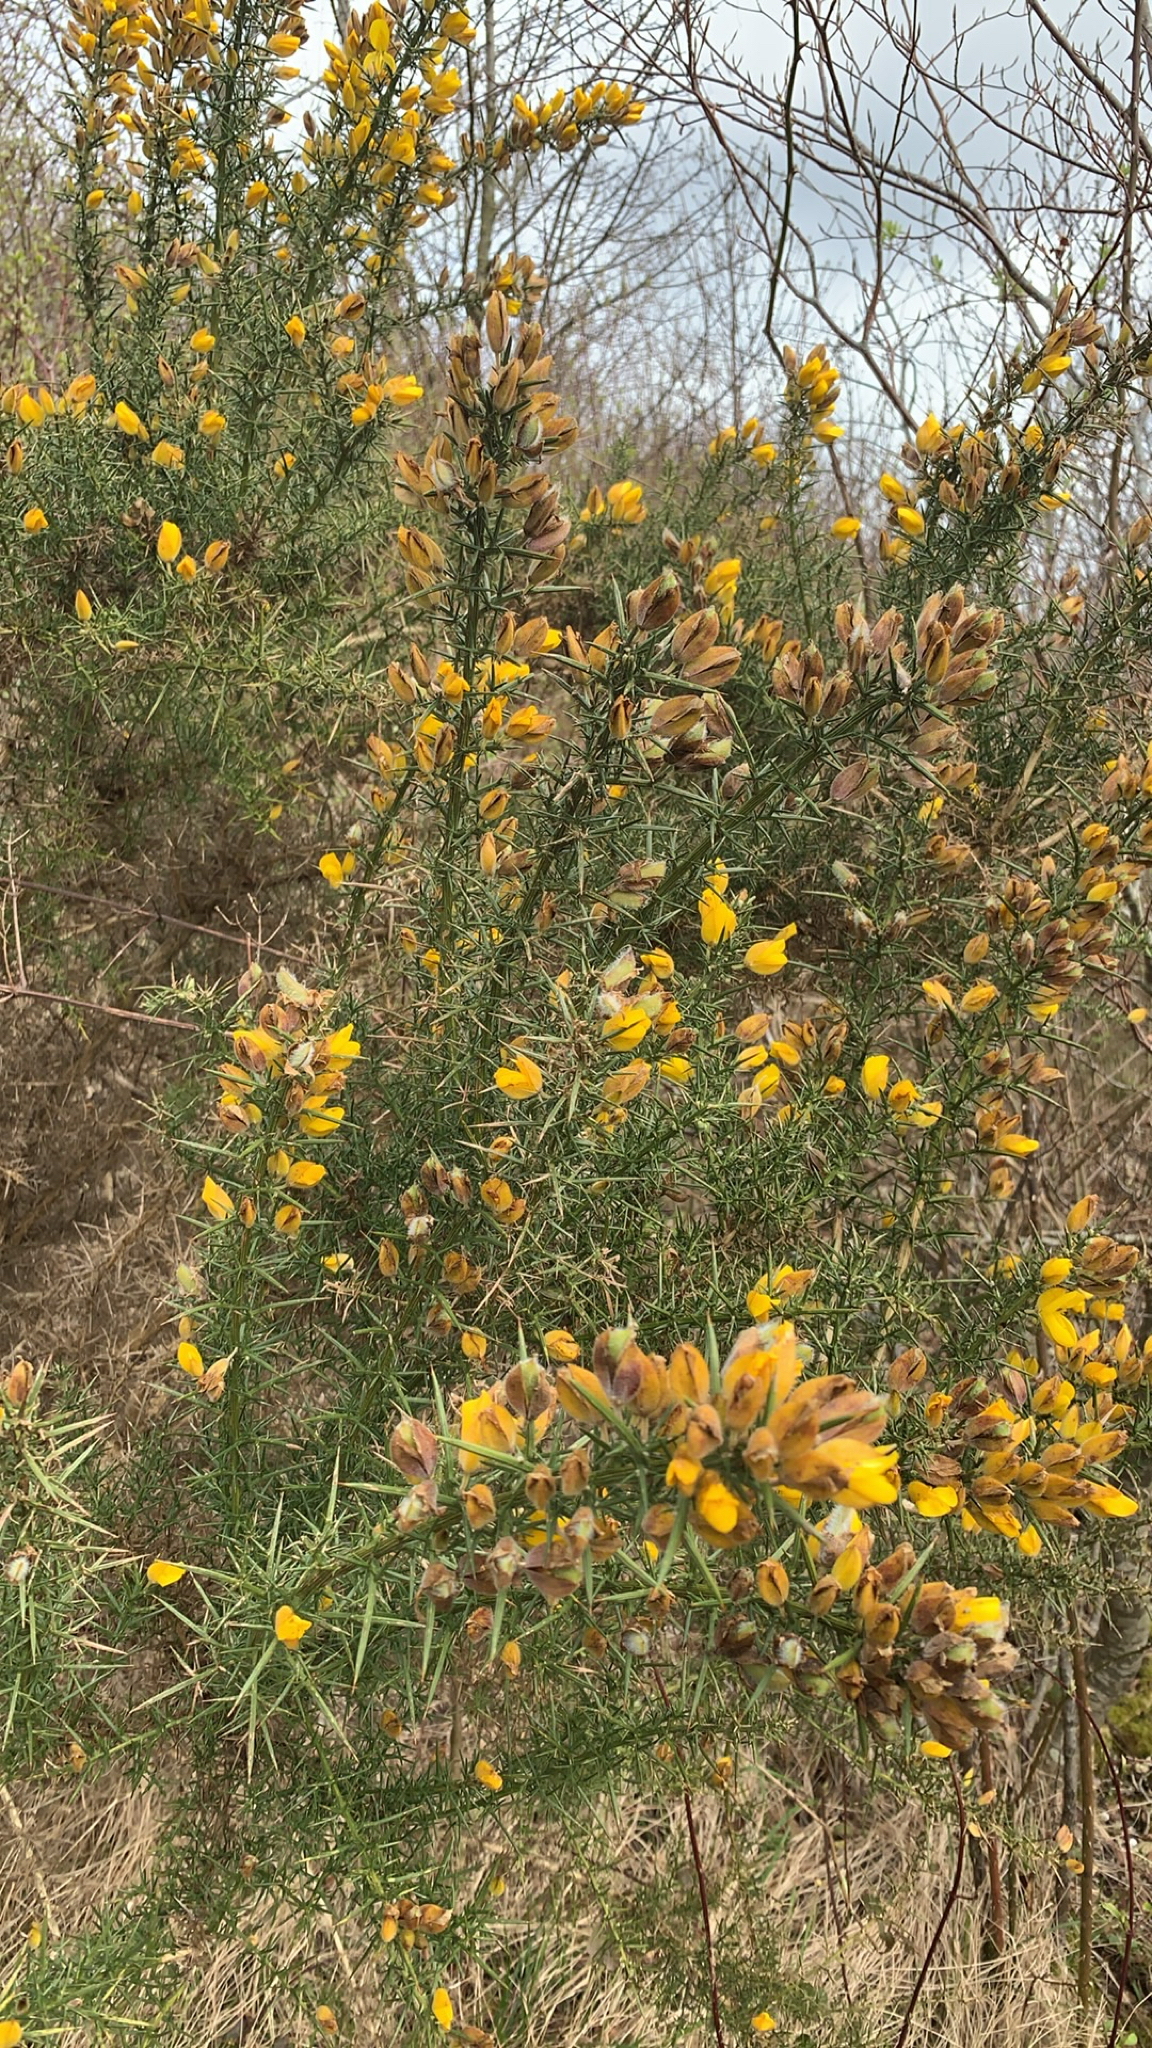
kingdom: Plantae
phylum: Tracheophyta
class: Magnoliopsida
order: Fabales
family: Fabaceae
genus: Ulex
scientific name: Ulex europaeus
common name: Common gorse
